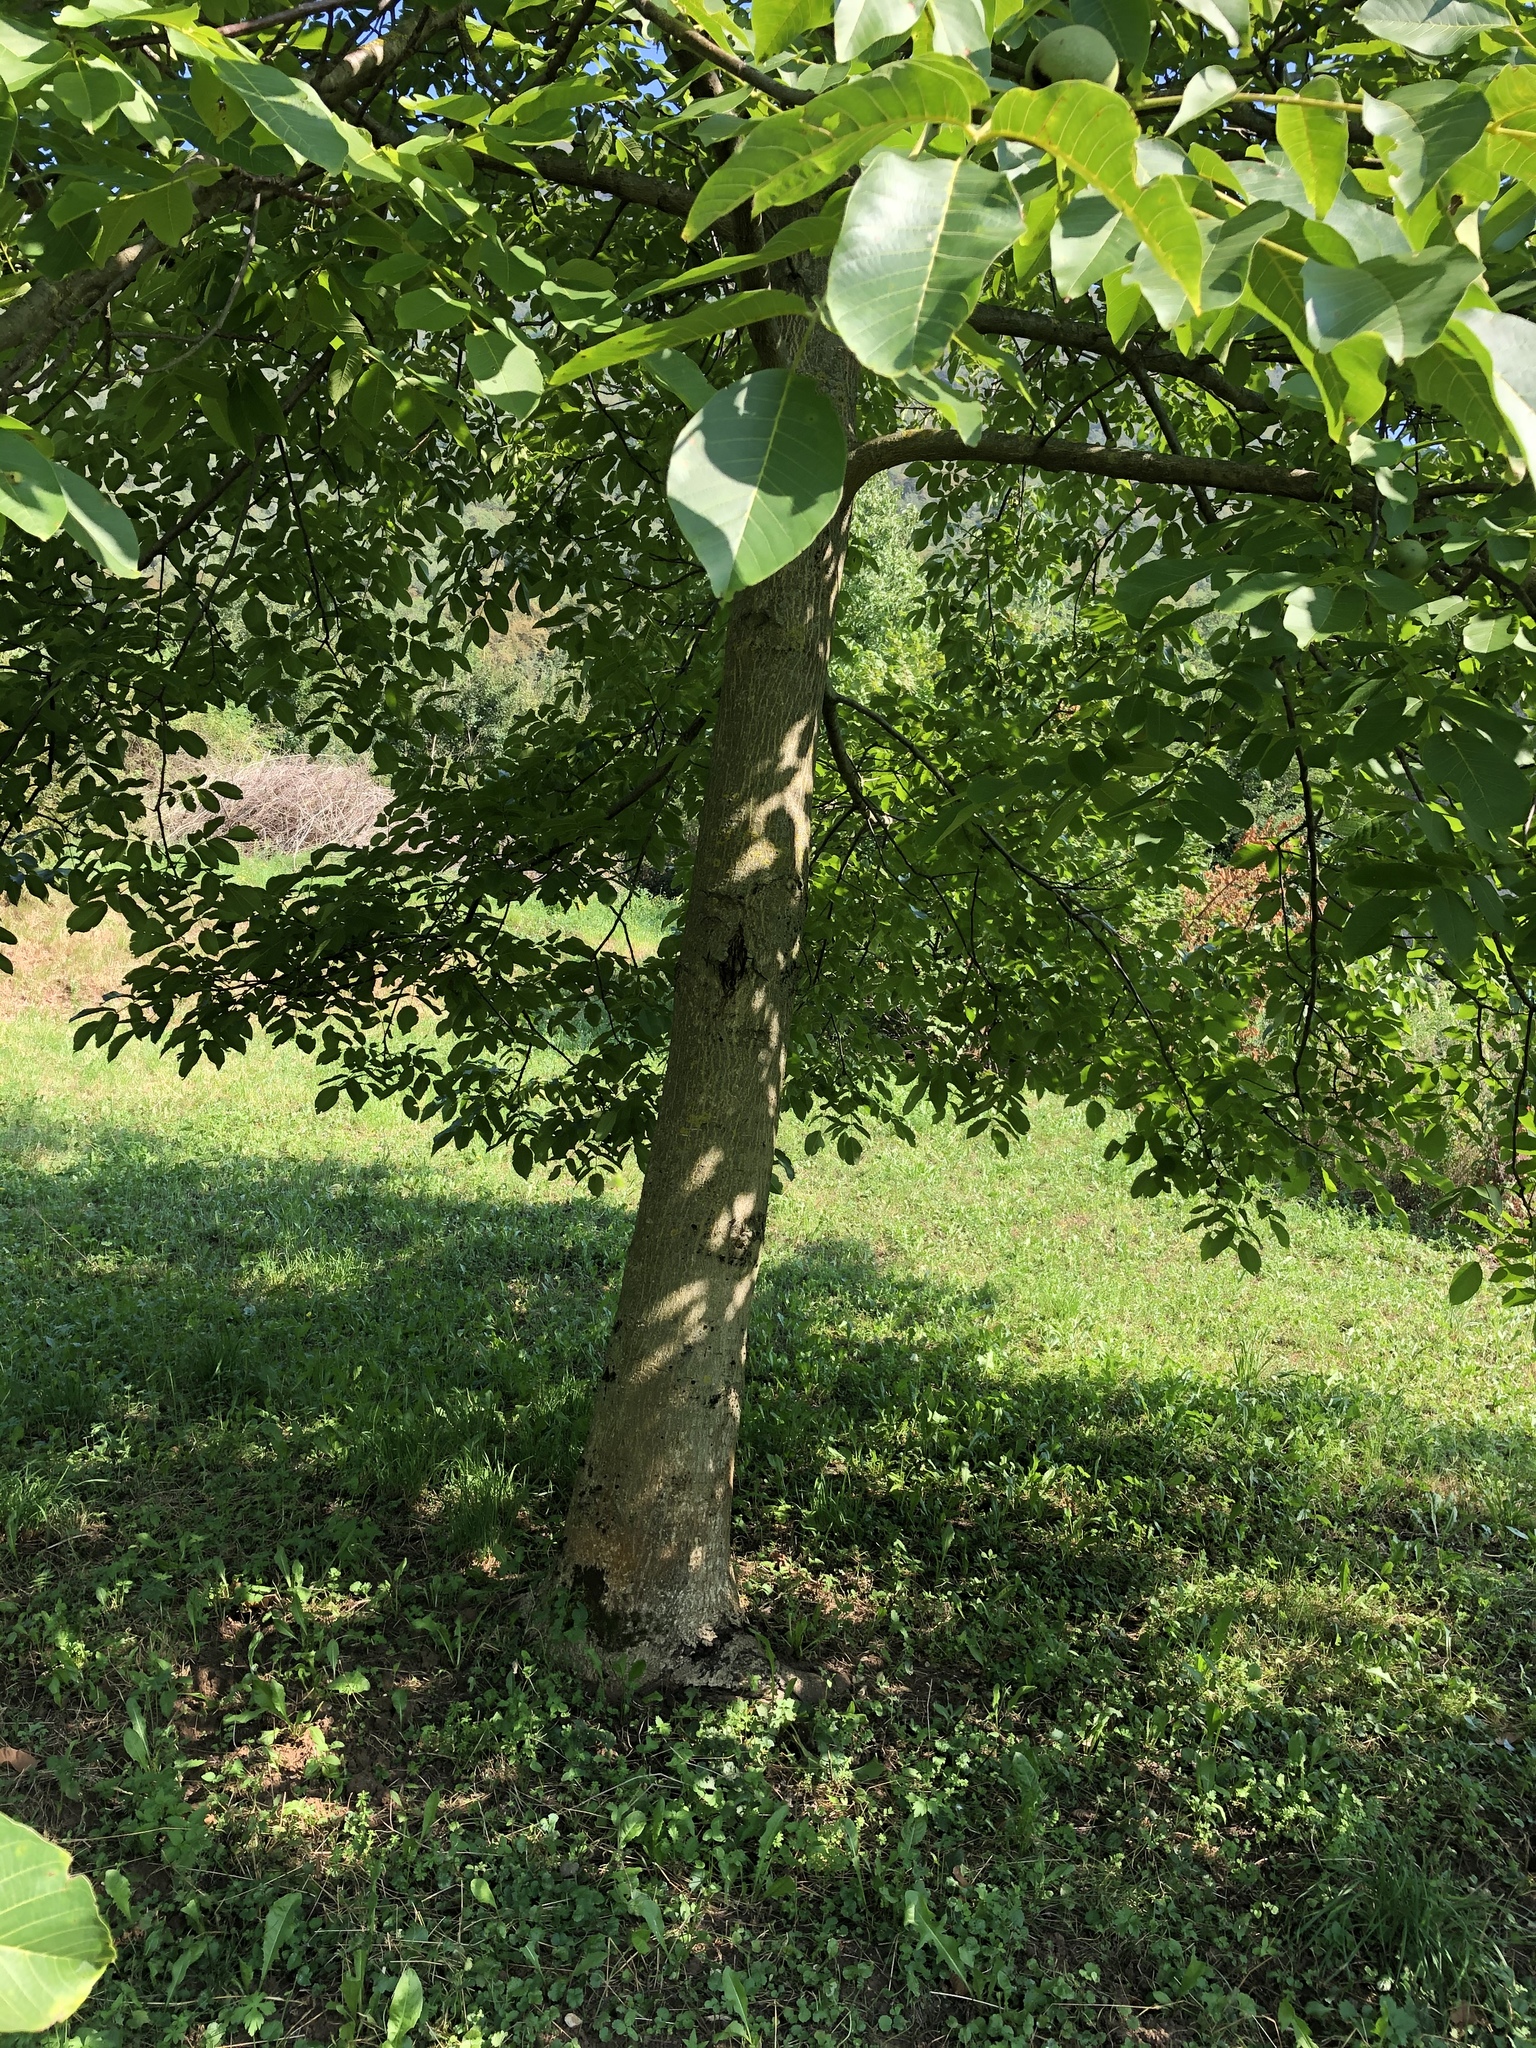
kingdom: Plantae
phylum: Tracheophyta
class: Magnoliopsida
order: Fagales
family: Juglandaceae
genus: Juglans
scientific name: Juglans regia
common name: Walnut
